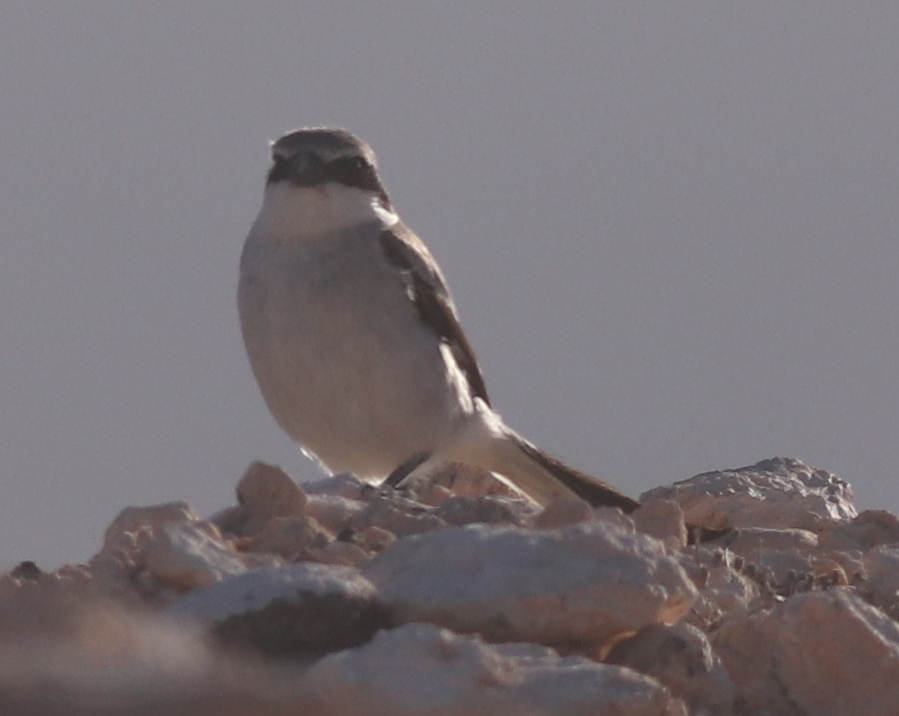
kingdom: Animalia
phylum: Chordata
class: Aves
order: Passeriformes
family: Laniidae
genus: Lanius
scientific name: Lanius excubitor
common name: Great grey shrike
